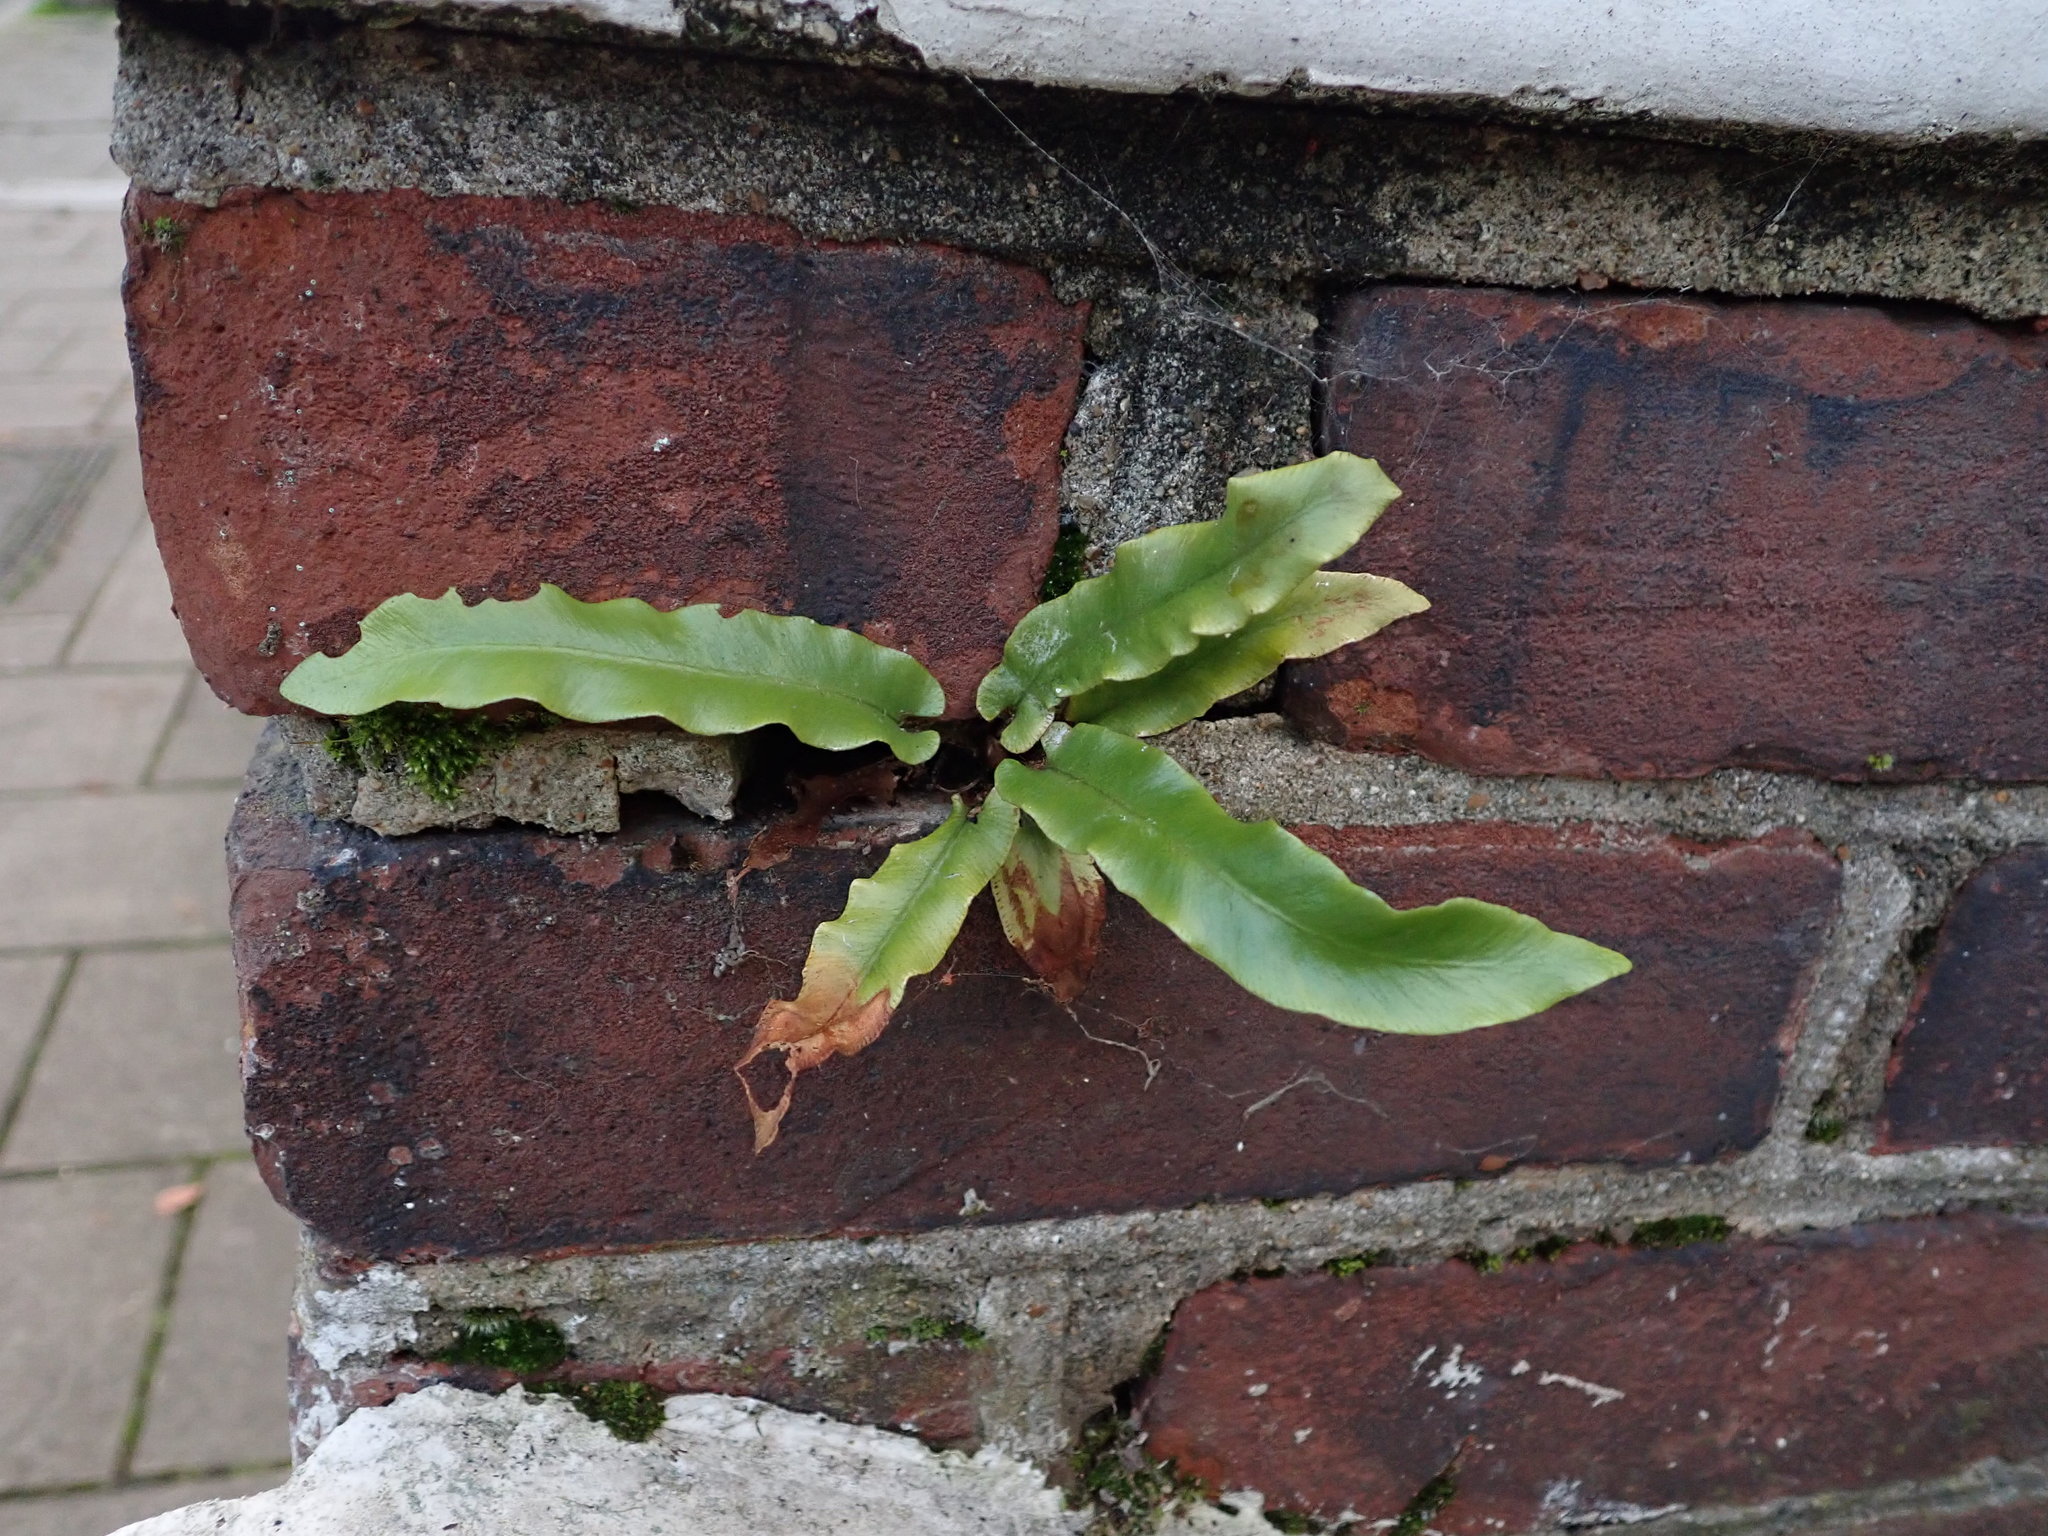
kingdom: Plantae
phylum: Tracheophyta
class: Polypodiopsida
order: Polypodiales
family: Aspleniaceae
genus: Asplenium
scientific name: Asplenium scolopendrium
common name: Hart's-tongue fern
